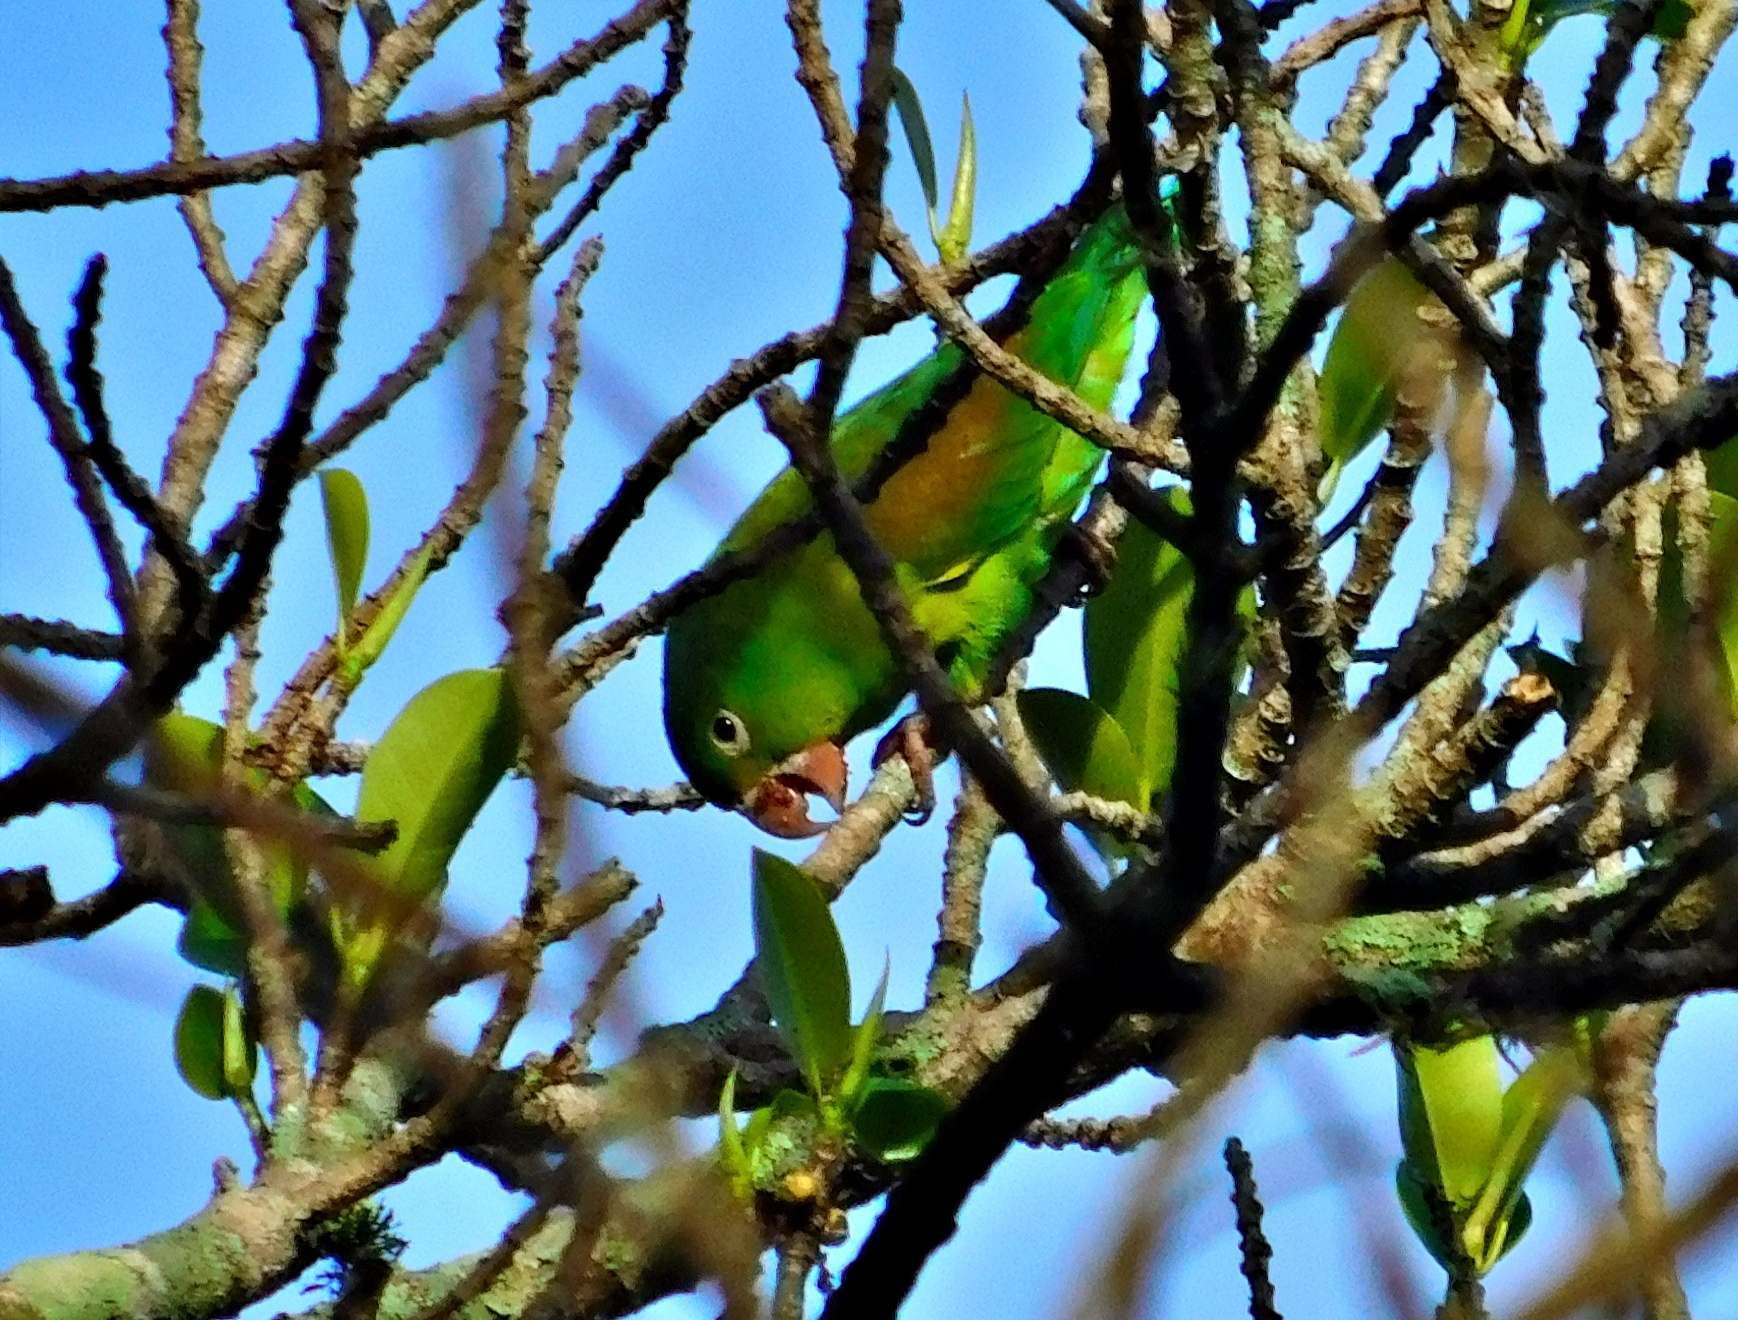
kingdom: Animalia
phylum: Chordata
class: Aves
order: Psittaciformes
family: Psittacidae
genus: Brotogeris
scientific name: Brotogeris jugularis
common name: Orange-chinned parakeet
